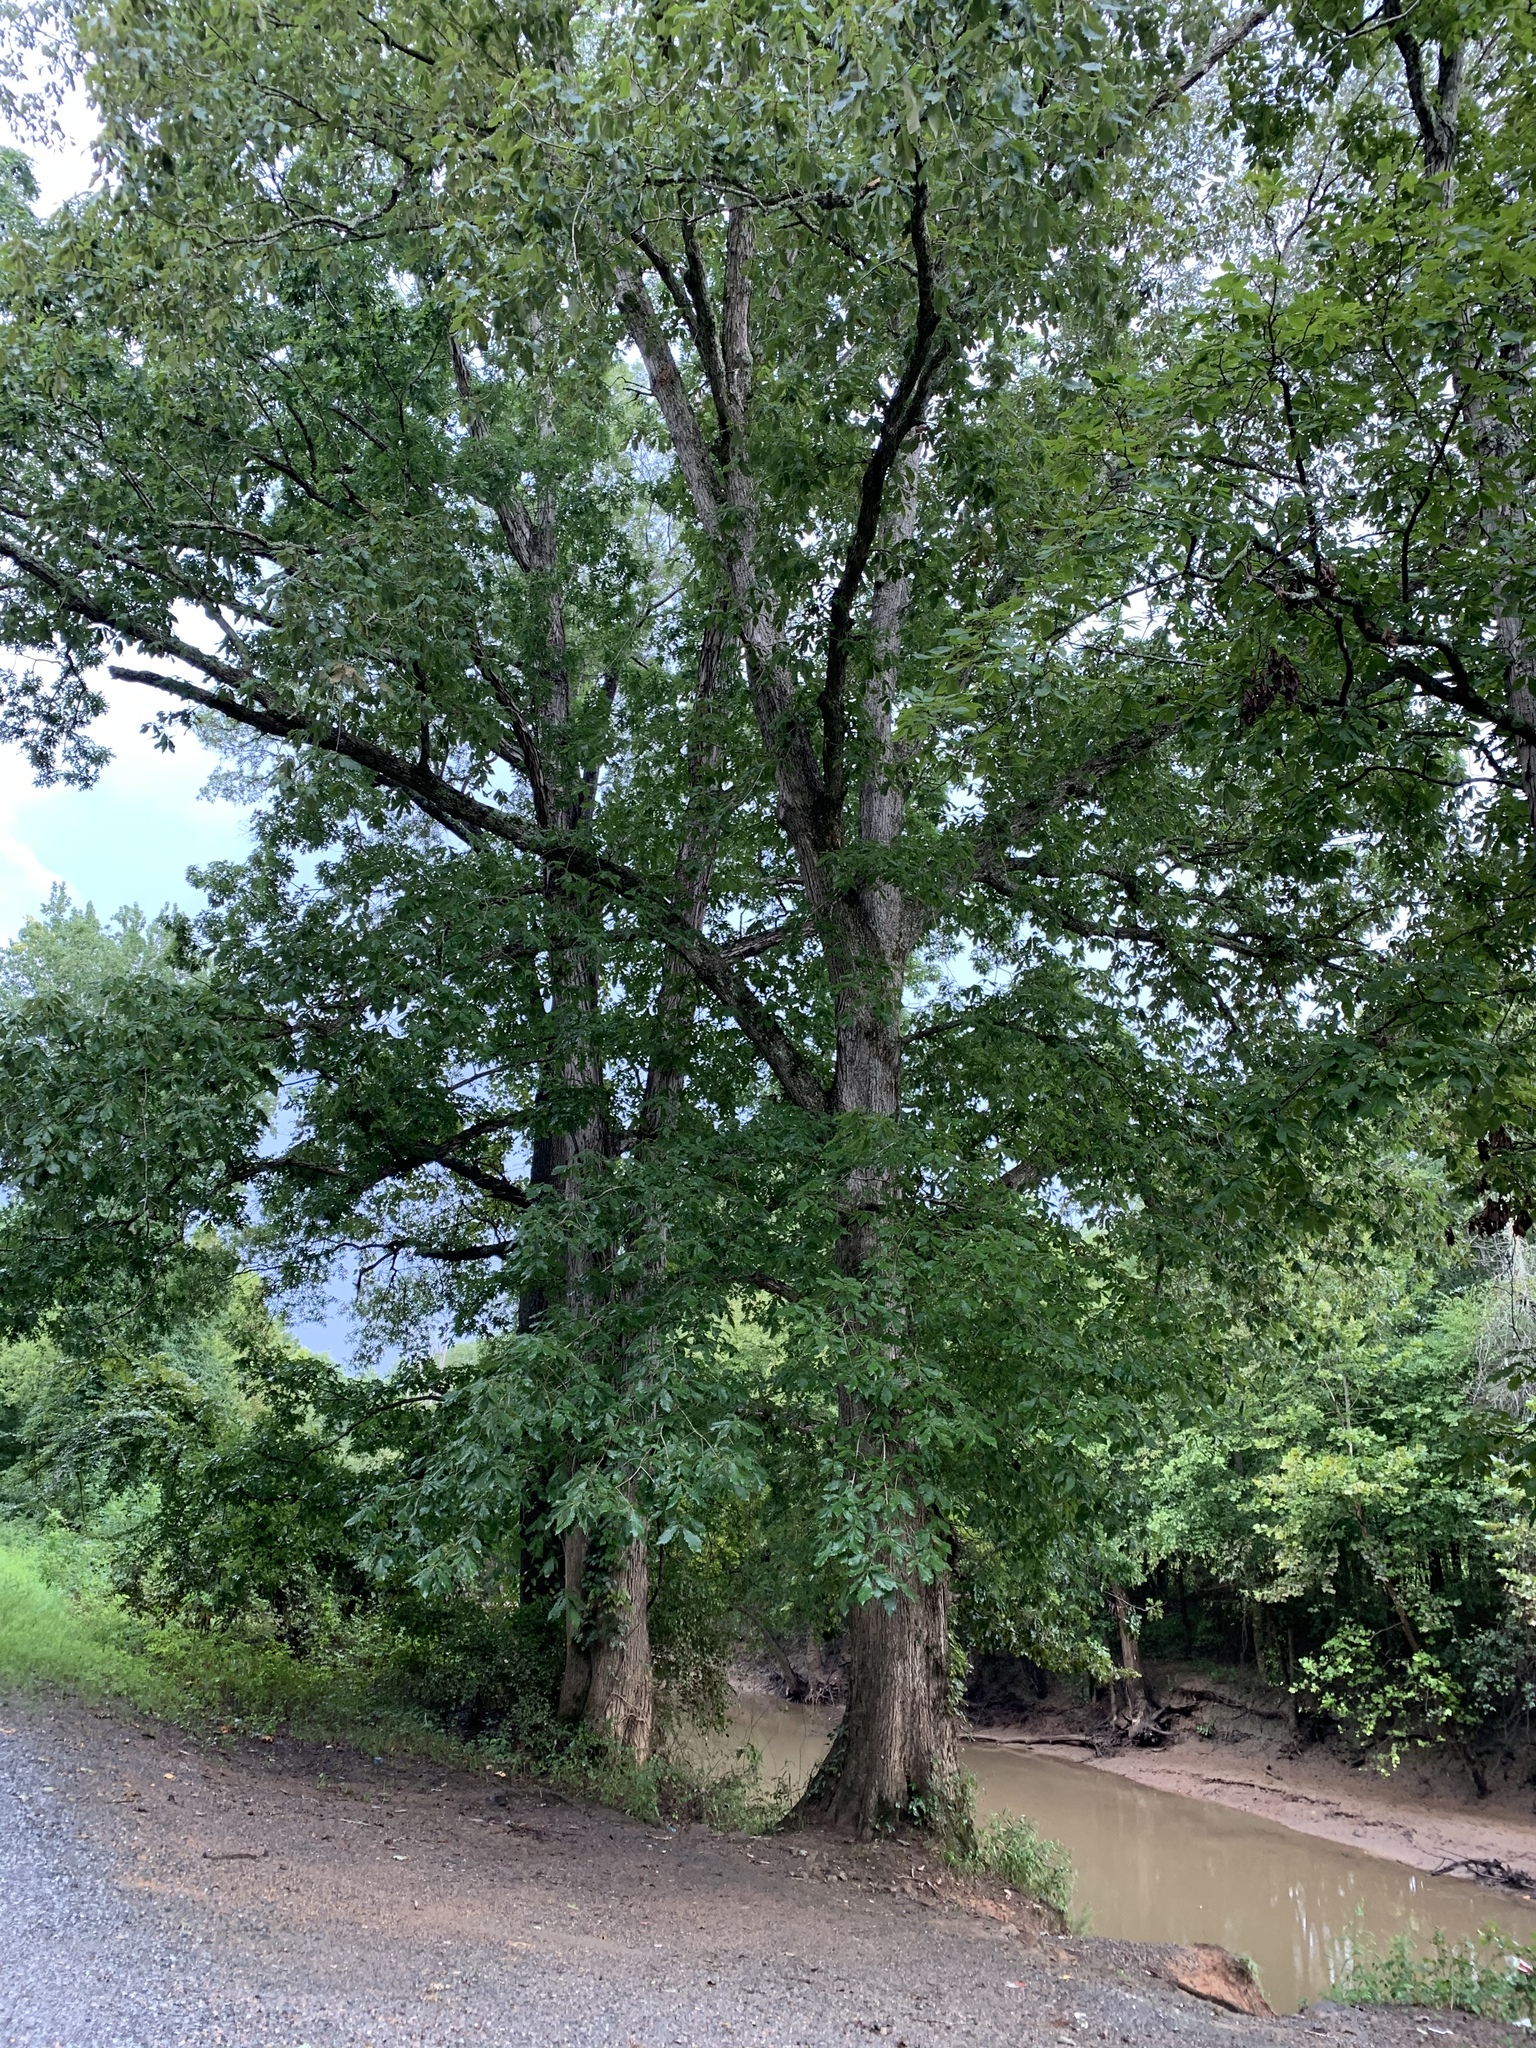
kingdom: Plantae
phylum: Tracheophyta
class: Magnoliopsida
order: Fagales
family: Fagaceae
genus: Quercus
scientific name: Quercus michauxii
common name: Swamp chestnut oak
